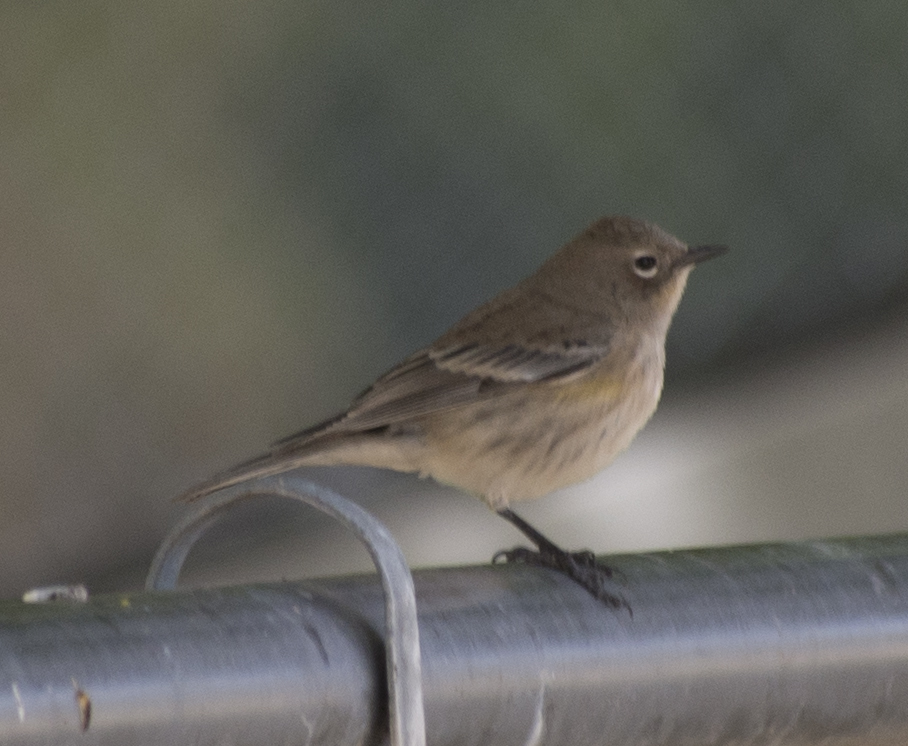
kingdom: Animalia
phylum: Chordata
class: Aves
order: Passeriformes
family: Parulidae
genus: Setophaga
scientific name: Setophaga coronata
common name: Myrtle warbler
